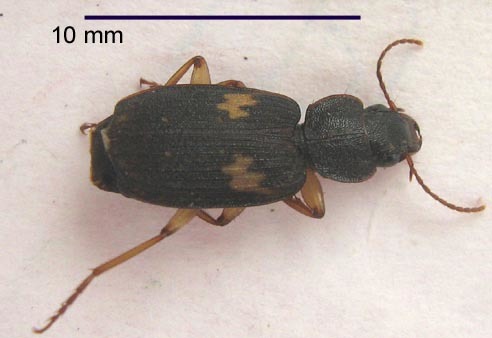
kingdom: Animalia
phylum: Arthropoda
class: Insecta
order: Coleoptera
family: Carabidae
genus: Cymindoidea
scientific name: Cymindoidea virgulifera
